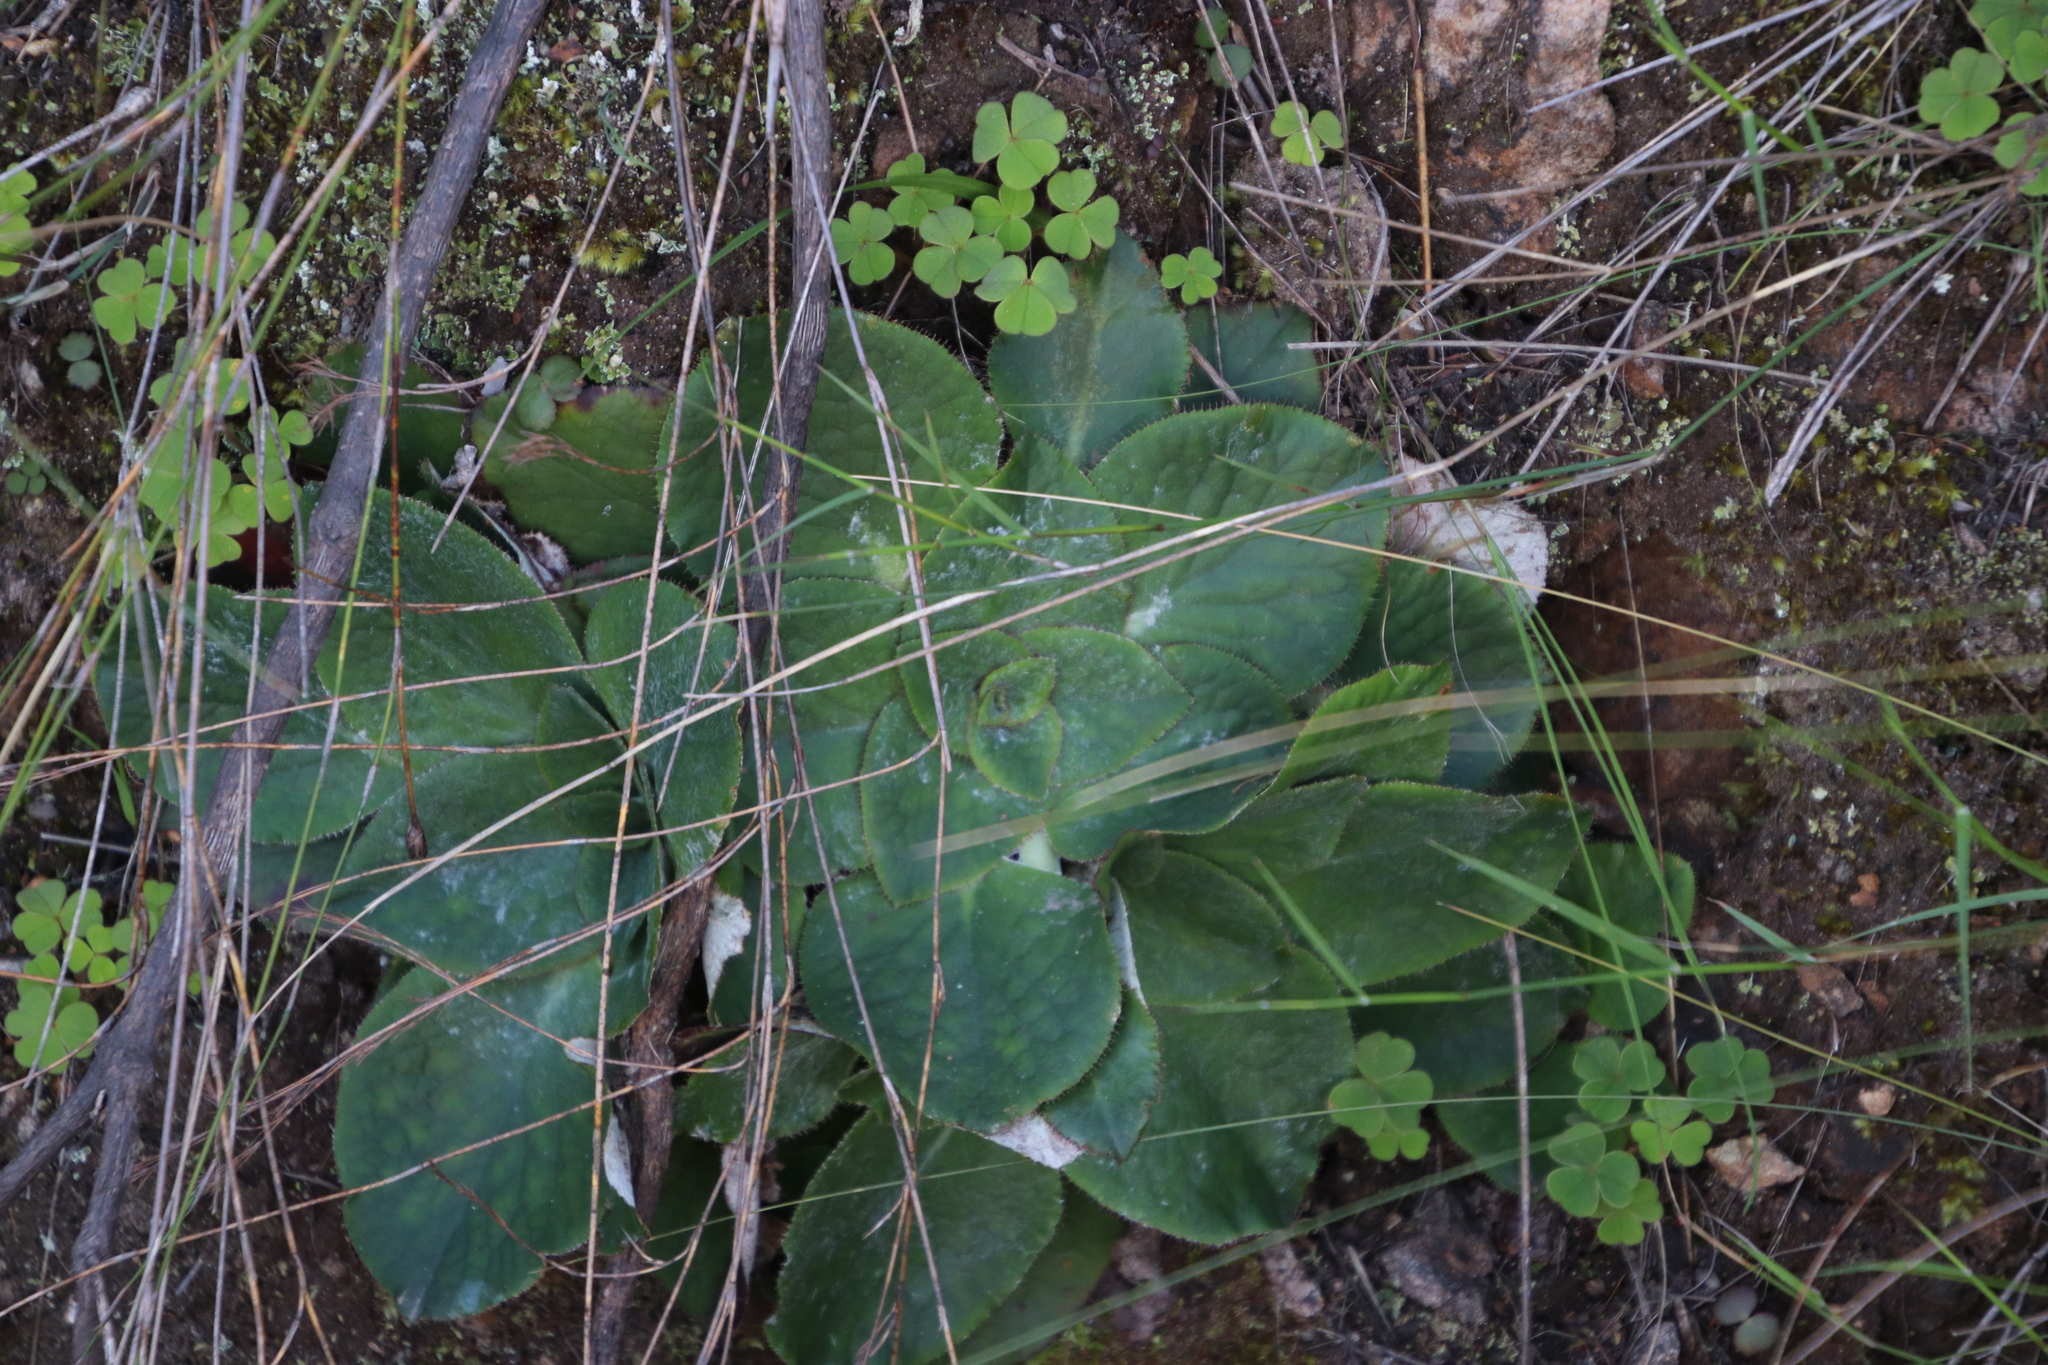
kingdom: Plantae
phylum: Tracheophyta
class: Magnoliopsida
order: Apiales
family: Apiaceae
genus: Hermas
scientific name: Hermas ciliata
